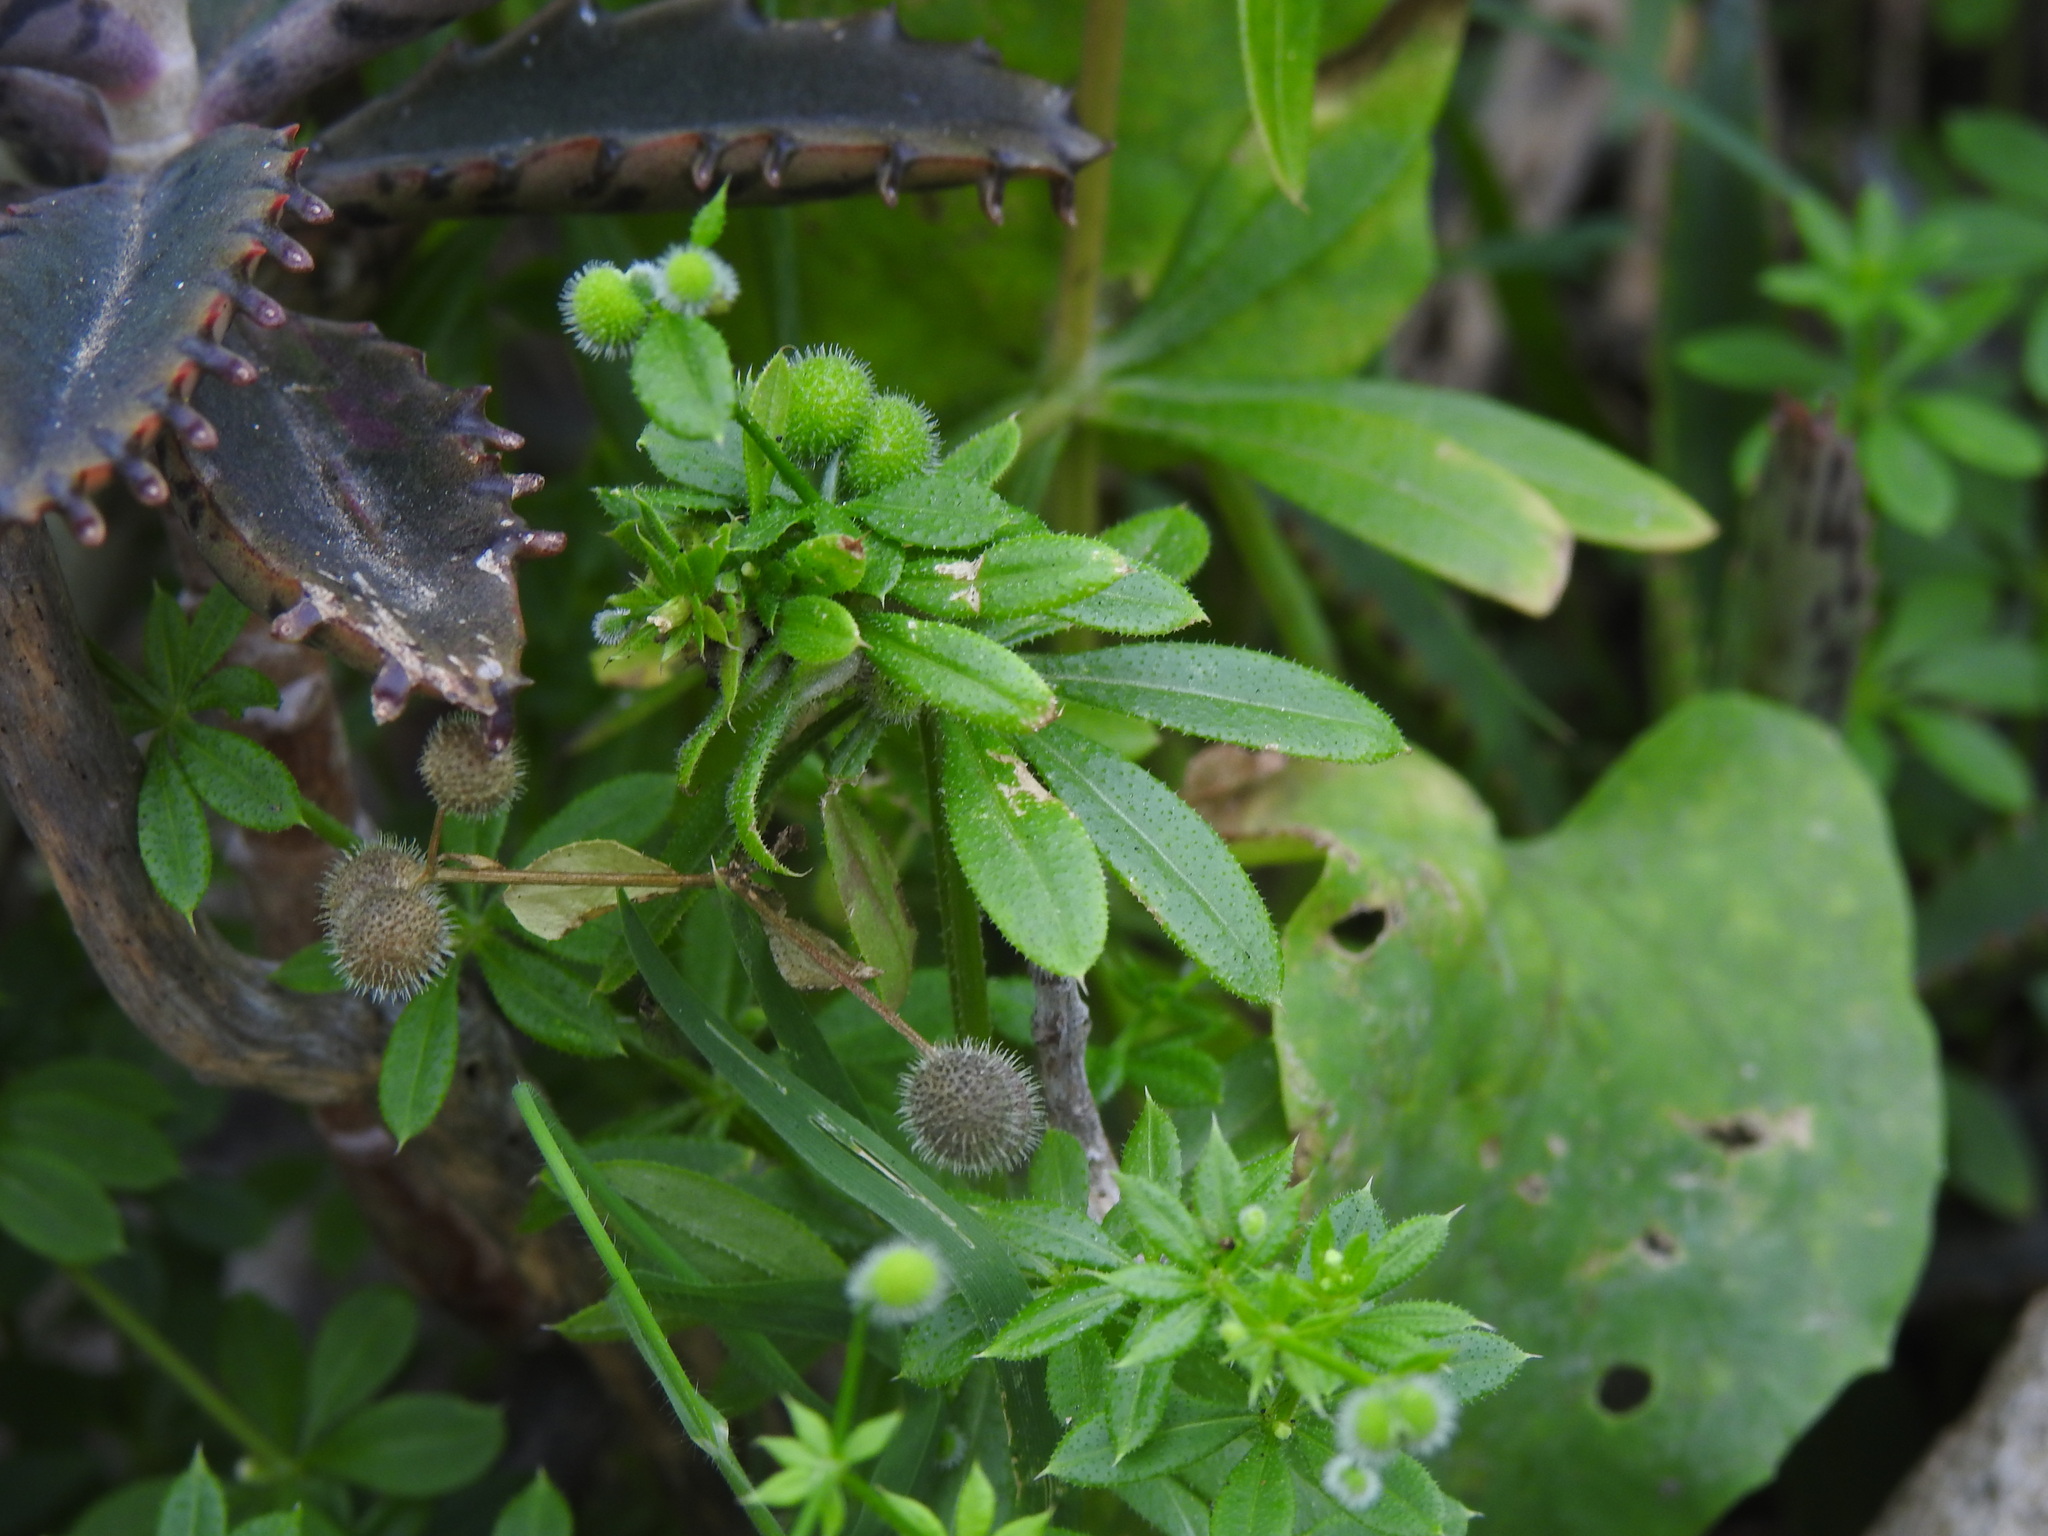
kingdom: Plantae
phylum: Tracheophyta
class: Magnoliopsida
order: Gentianales
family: Rubiaceae
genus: Galium
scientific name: Galium aparine
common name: Cleavers
